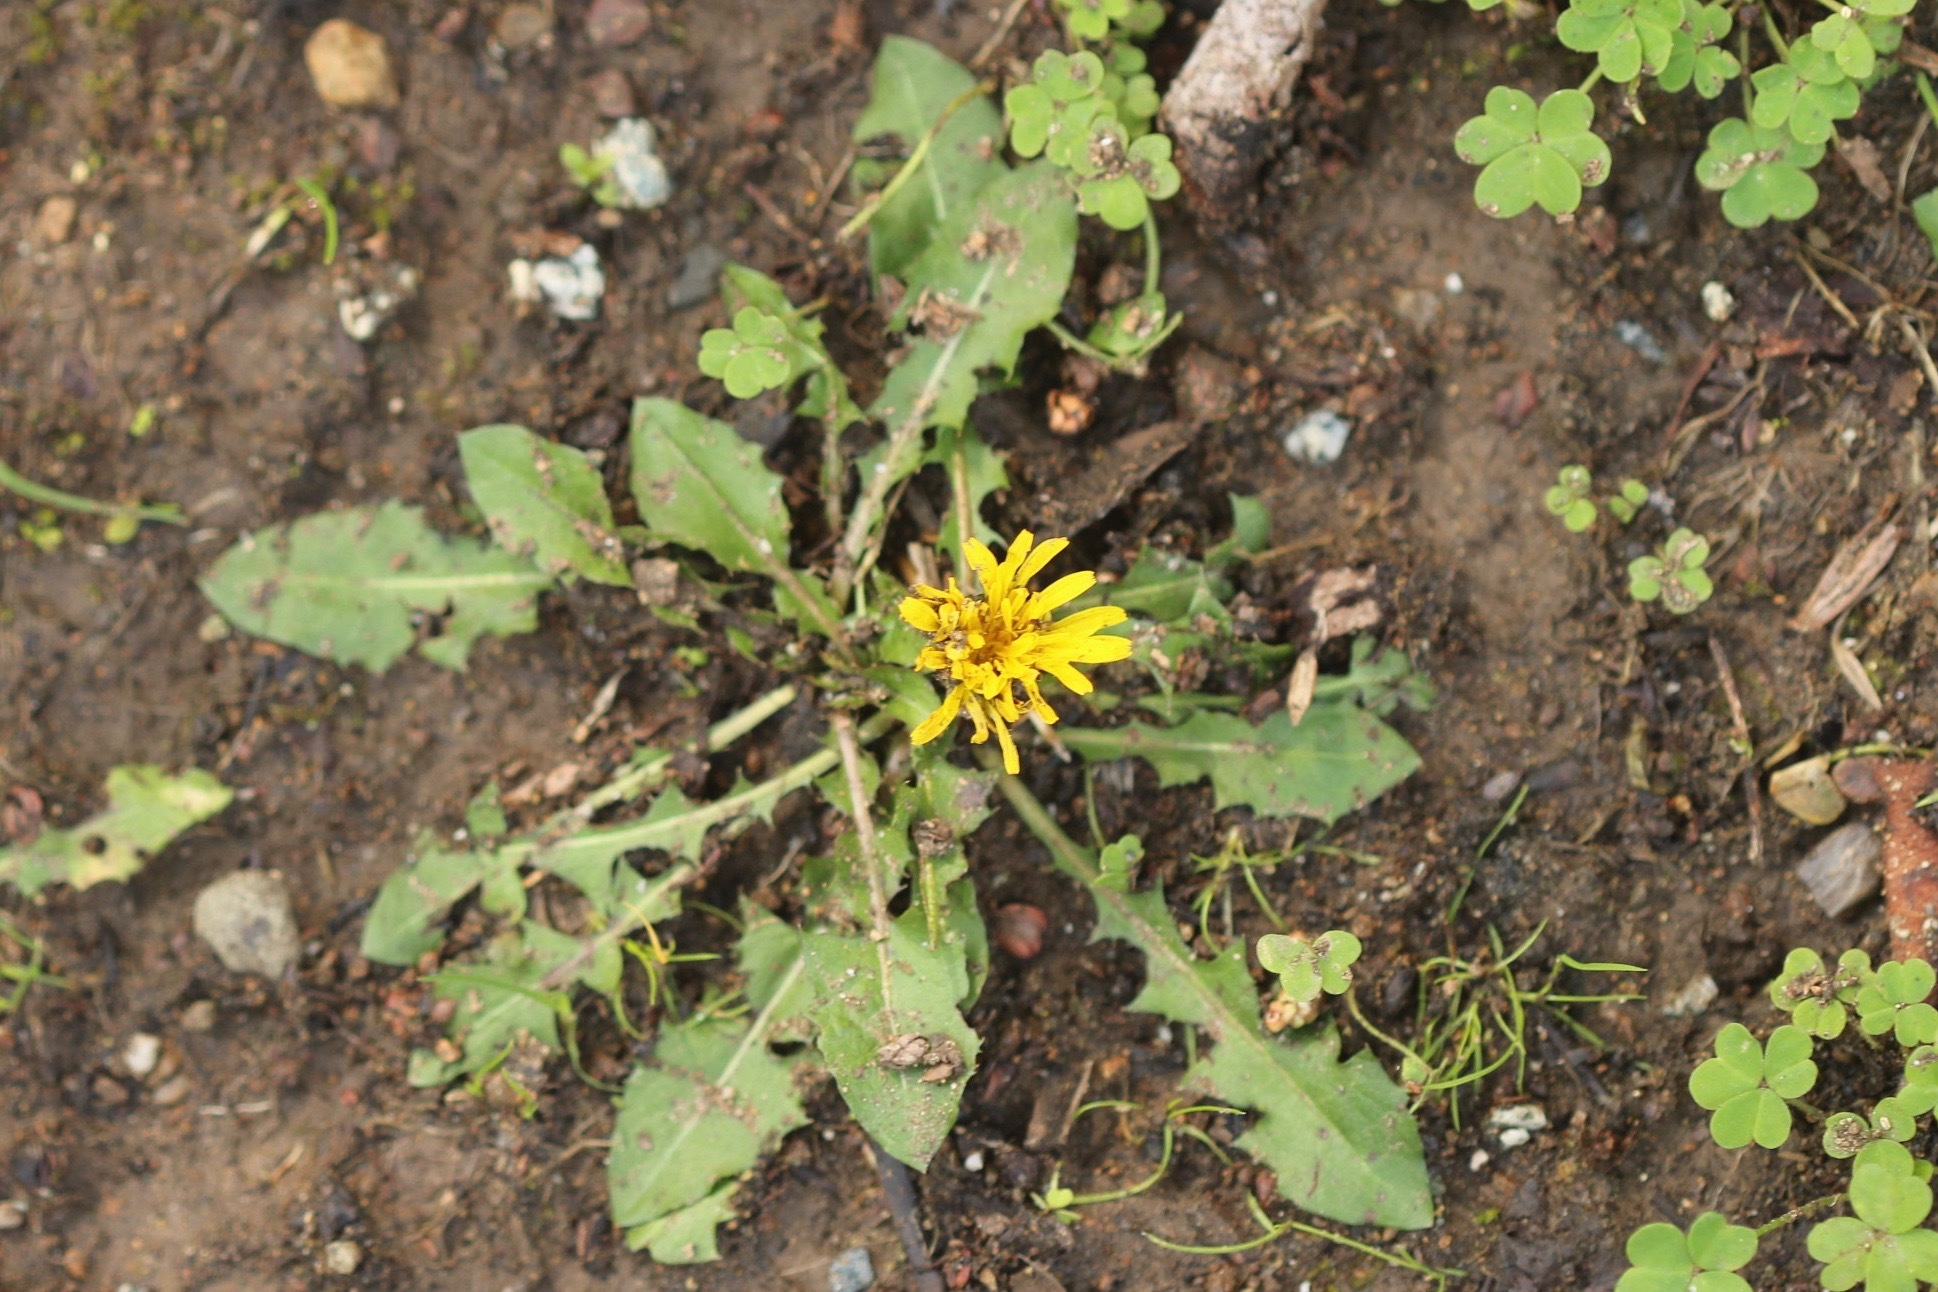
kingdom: Plantae
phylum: Tracheophyta
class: Magnoliopsida
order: Asterales
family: Asteraceae
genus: Taraxacum
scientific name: Taraxacum officinale
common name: Common dandelion
